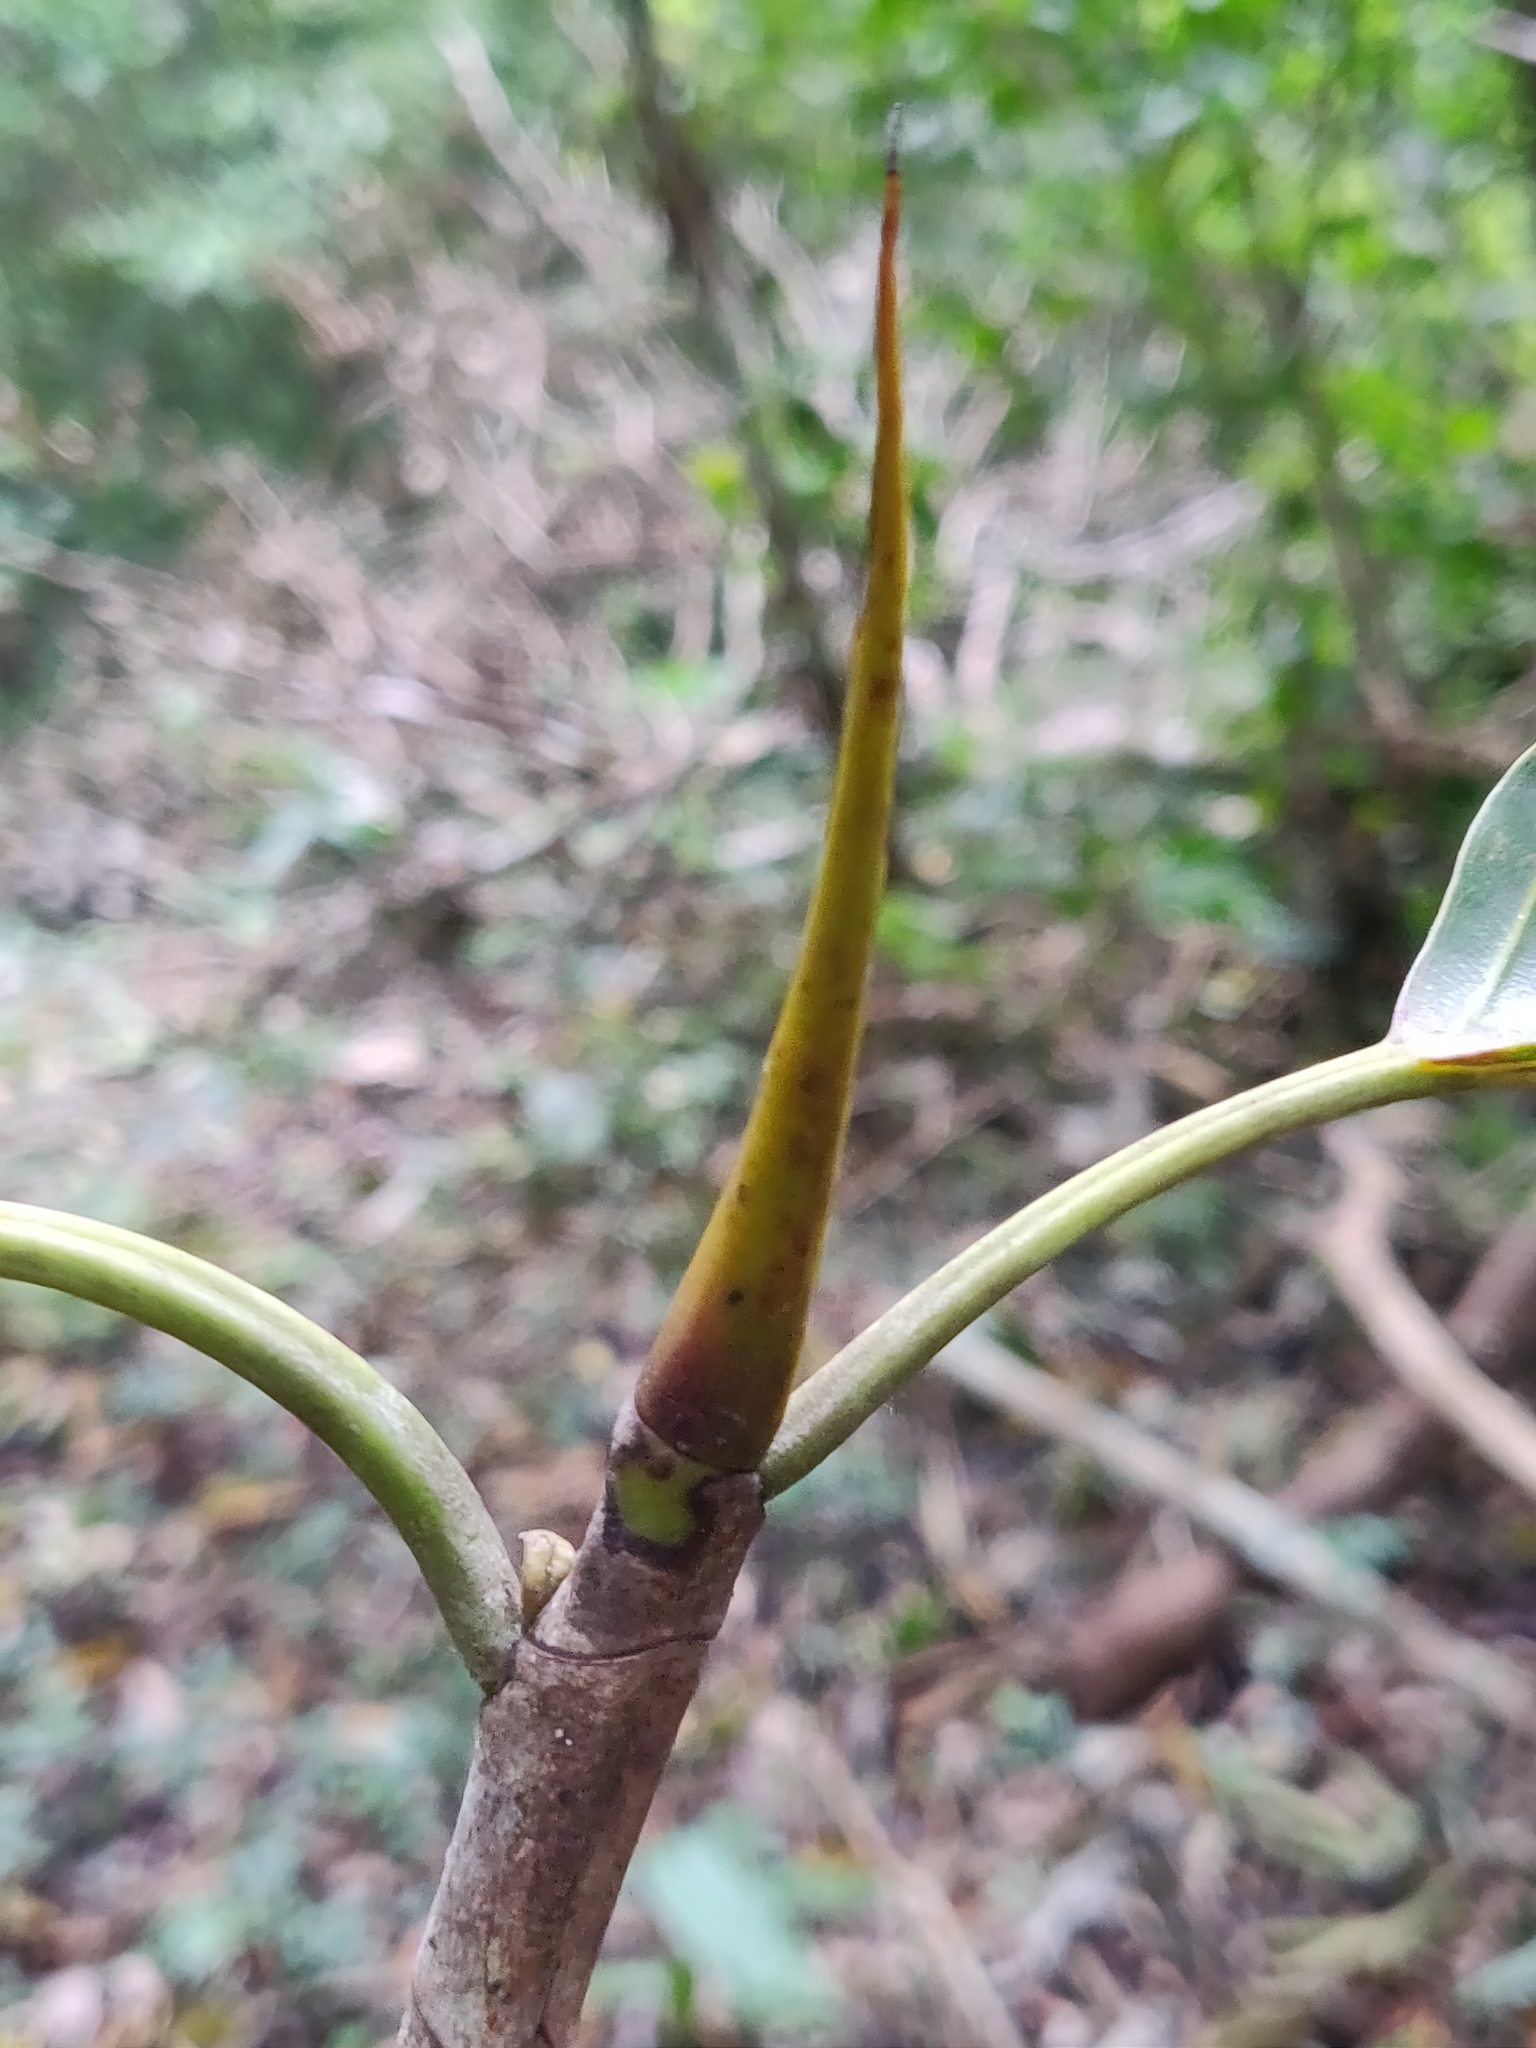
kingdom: Plantae
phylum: Tracheophyta
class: Magnoliopsida
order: Rosales
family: Moraceae
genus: Ficus
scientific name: Ficus beddomei
